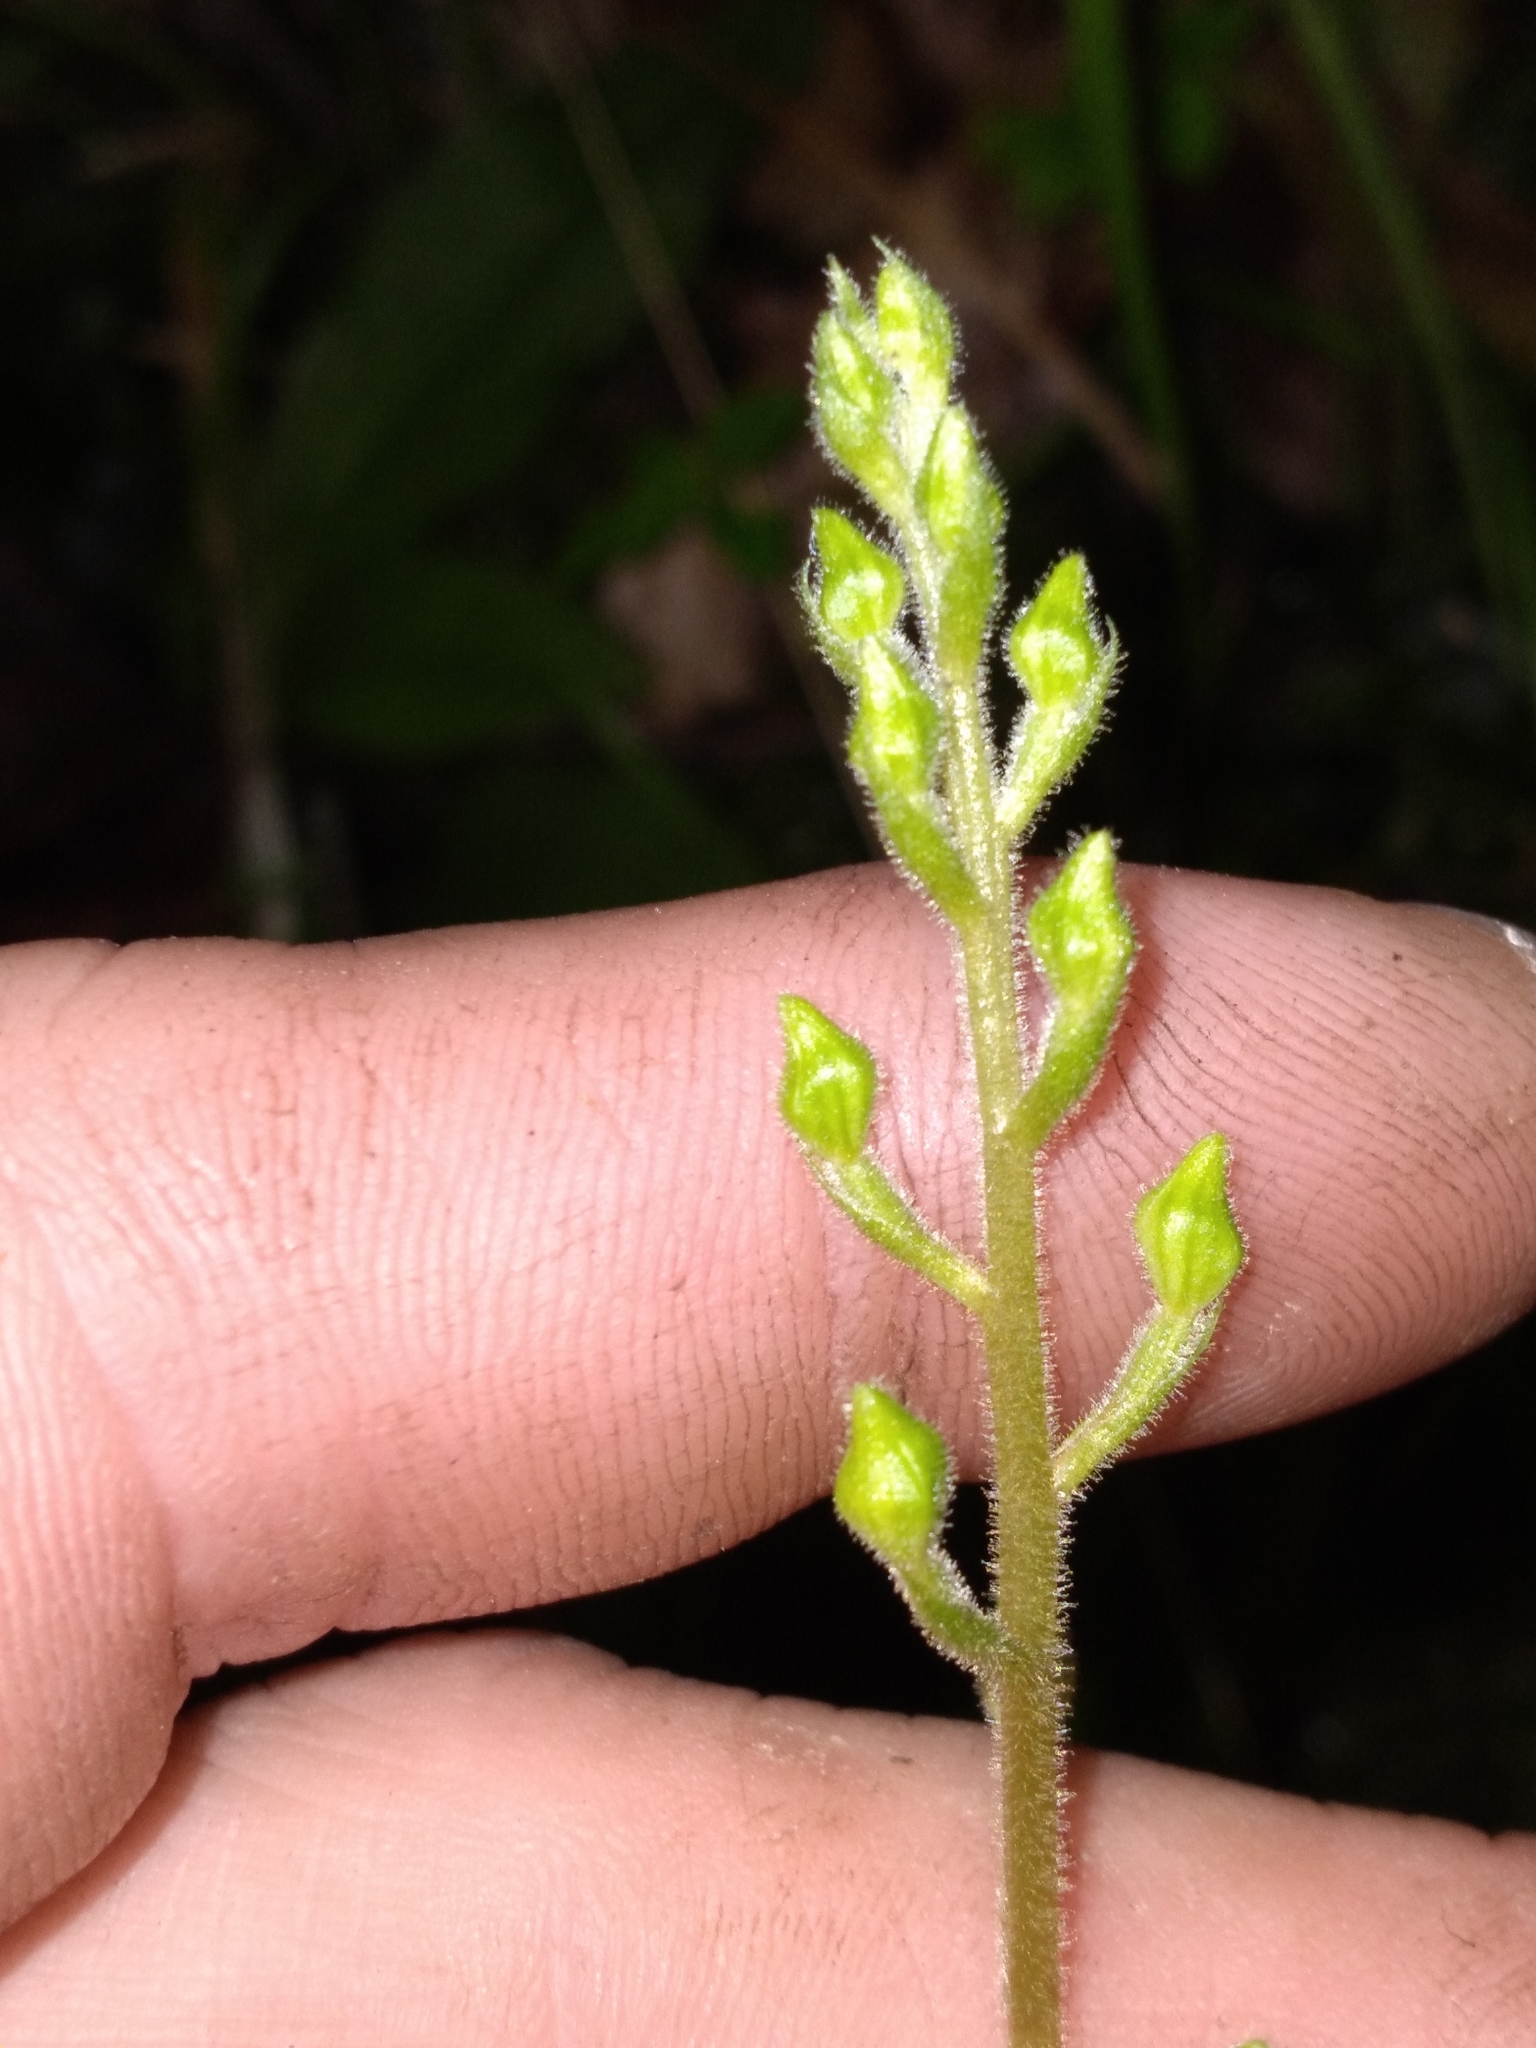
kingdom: Plantae
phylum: Tracheophyta
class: Liliopsida
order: Asparagales
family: Orchidaceae
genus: Ponthieva
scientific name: Ponthieva racemosa
